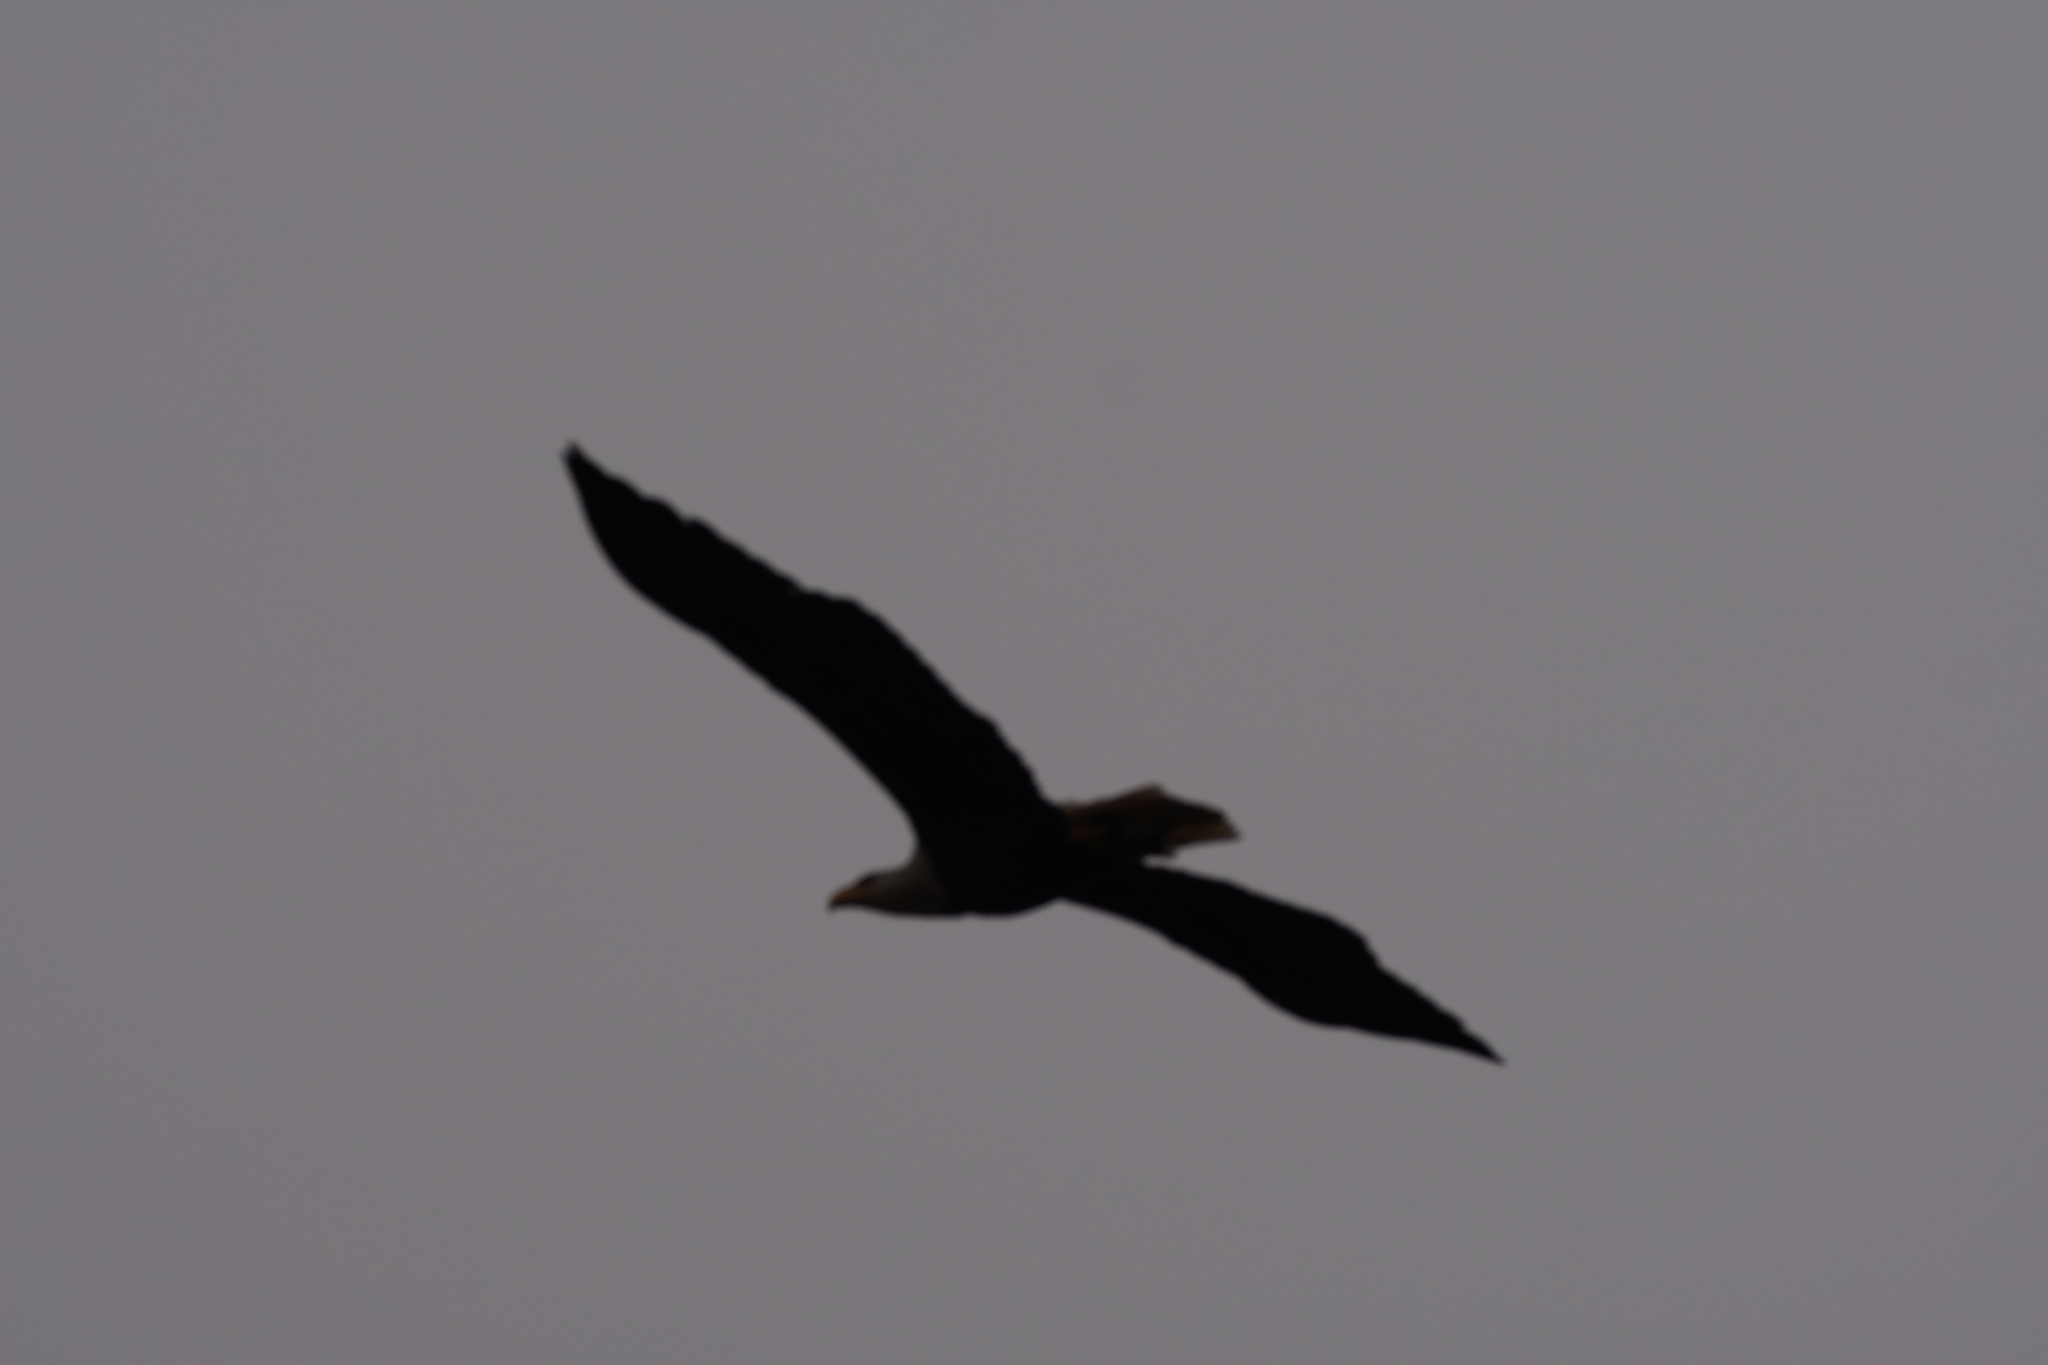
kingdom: Animalia
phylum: Chordata
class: Aves
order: Accipitriformes
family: Accipitridae
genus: Haliaeetus
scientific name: Haliaeetus leucocephalus
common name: Bald eagle
